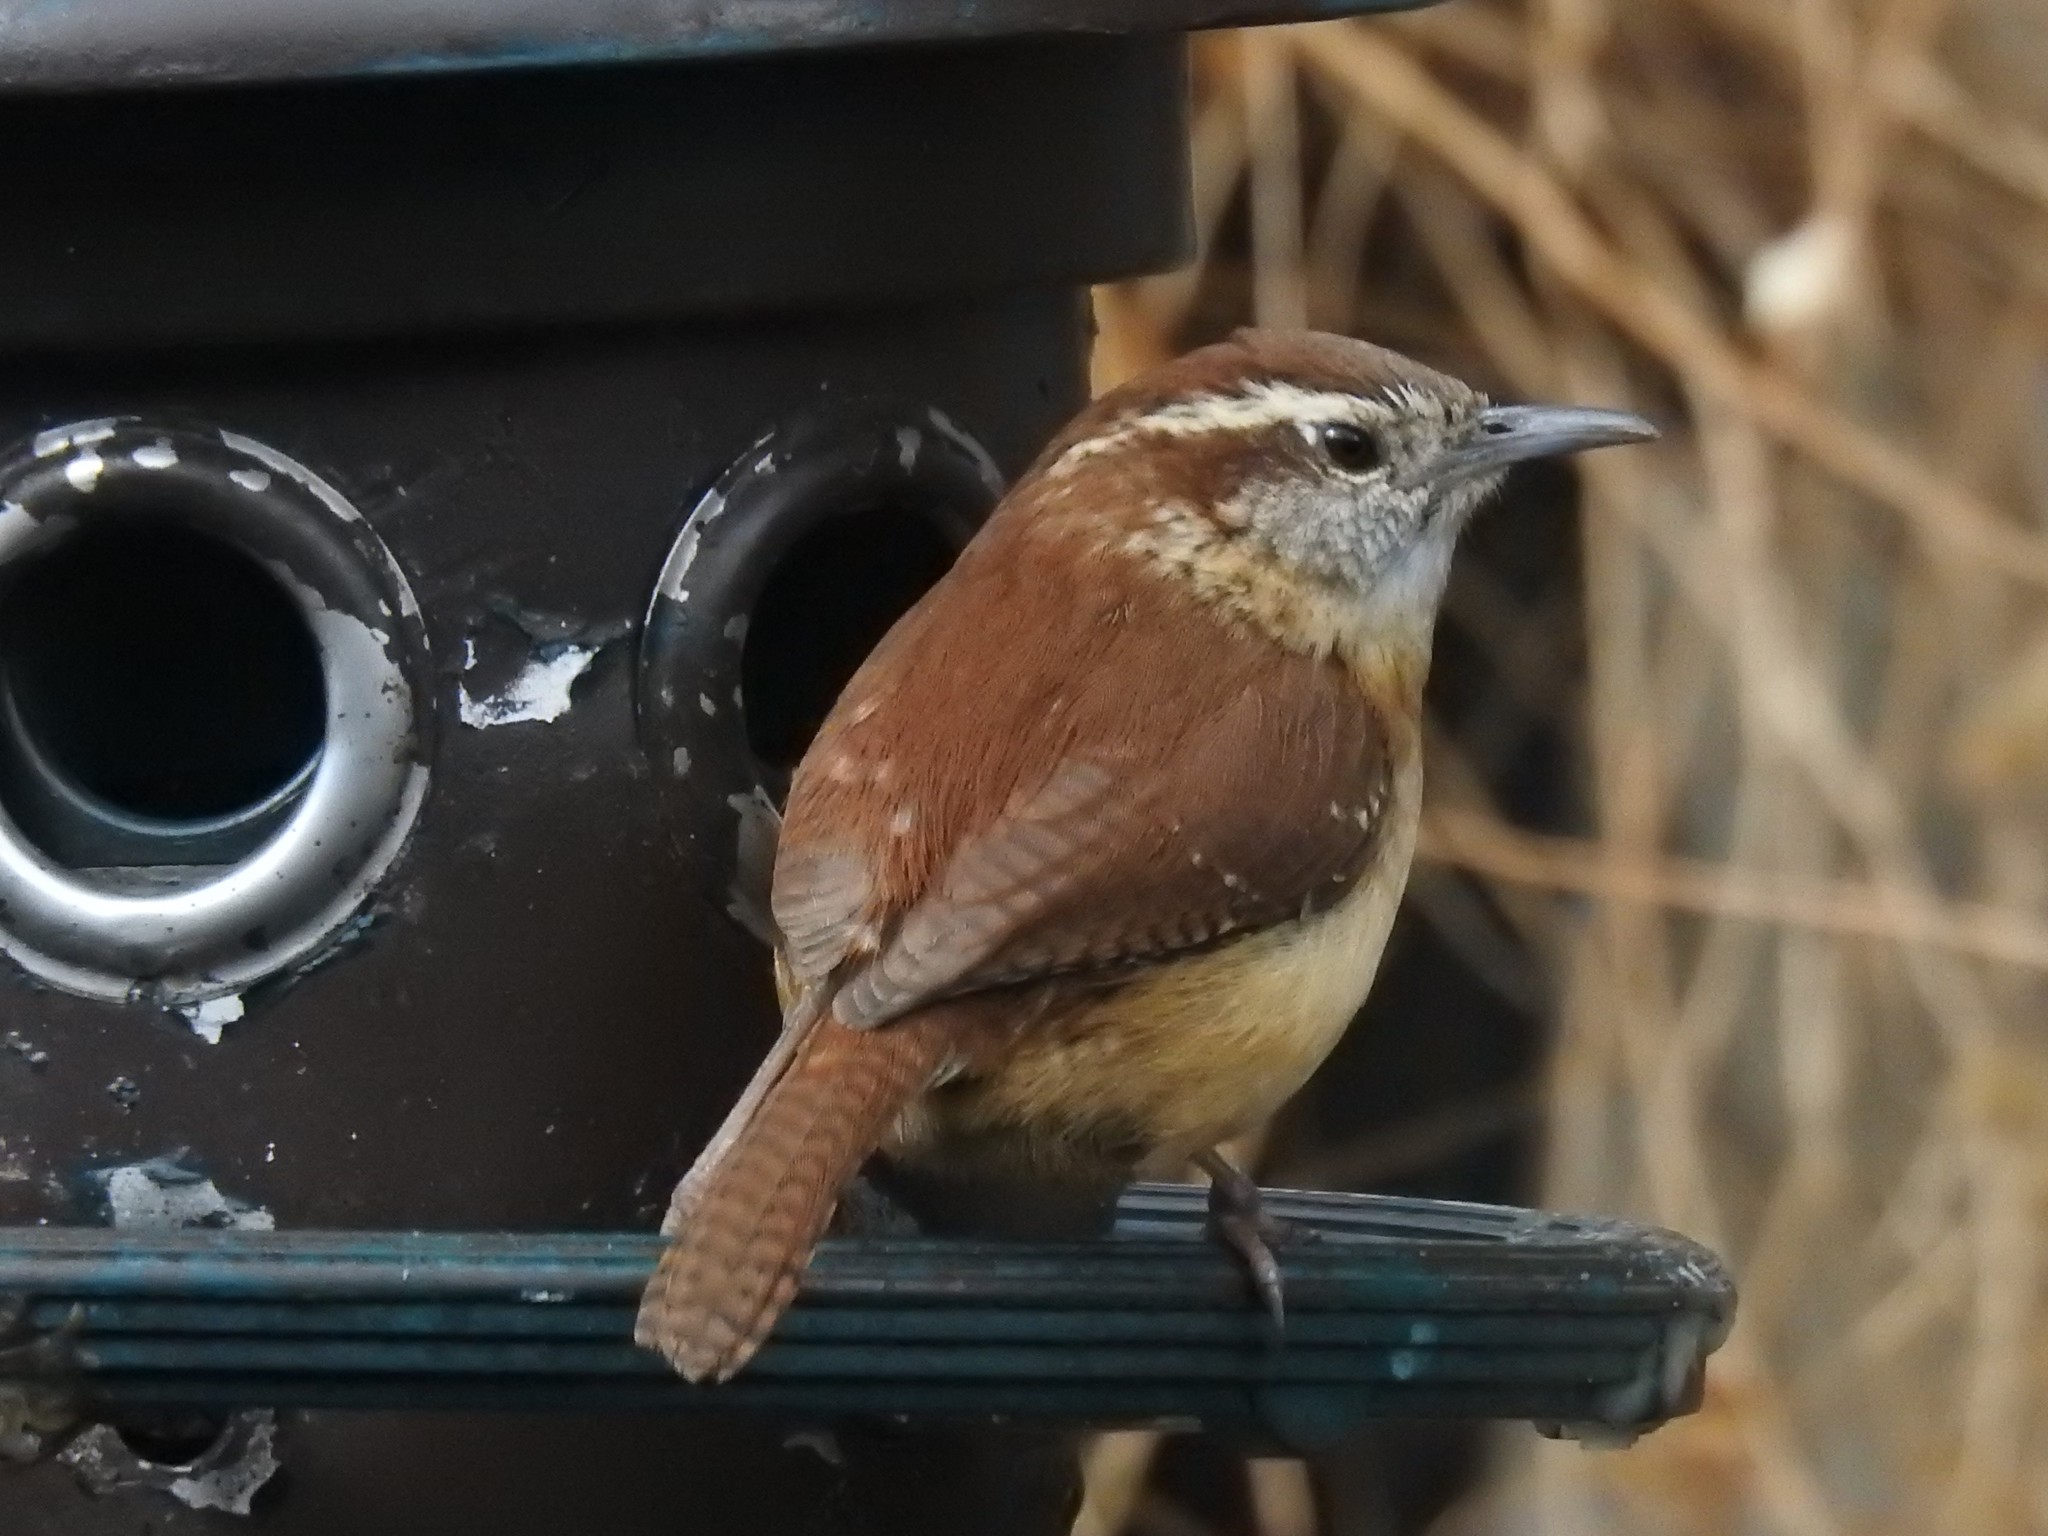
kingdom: Animalia
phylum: Chordata
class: Aves
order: Passeriformes
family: Troglodytidae
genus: Thryothorus
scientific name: Thryothorus ludovicianus
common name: Carolina wren
